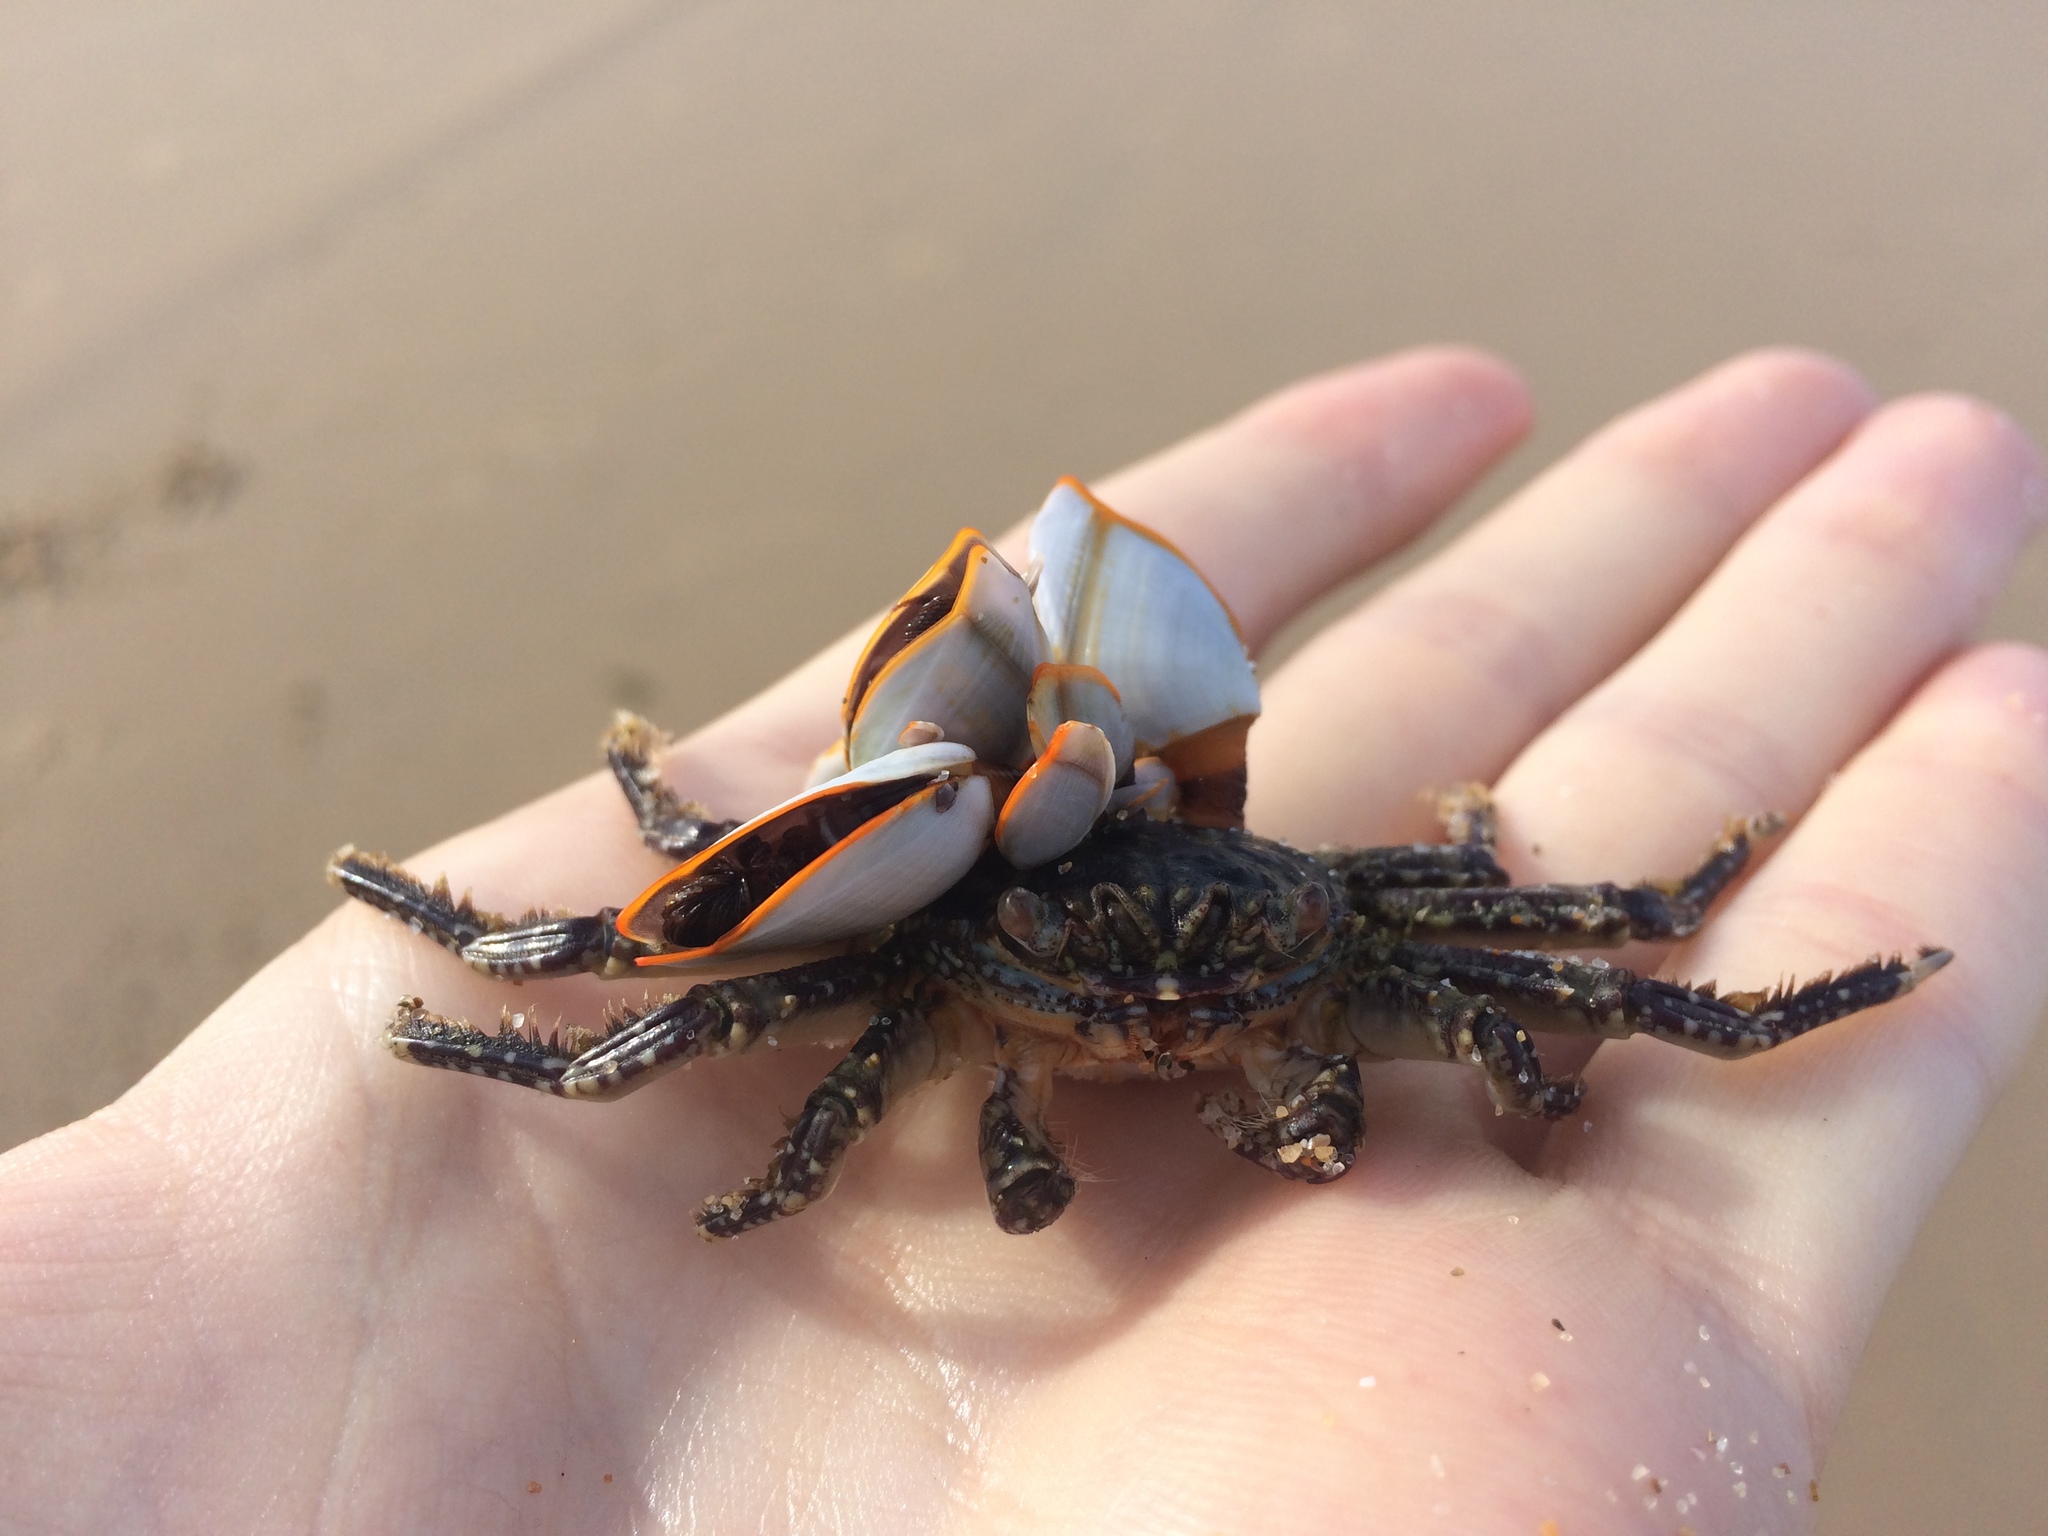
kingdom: Animalia
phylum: Arthropoda
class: Maxillopoda
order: Pedunculata
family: Lepadidae
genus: Lepas
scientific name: Lepas anserifera
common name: Goose barnacle
